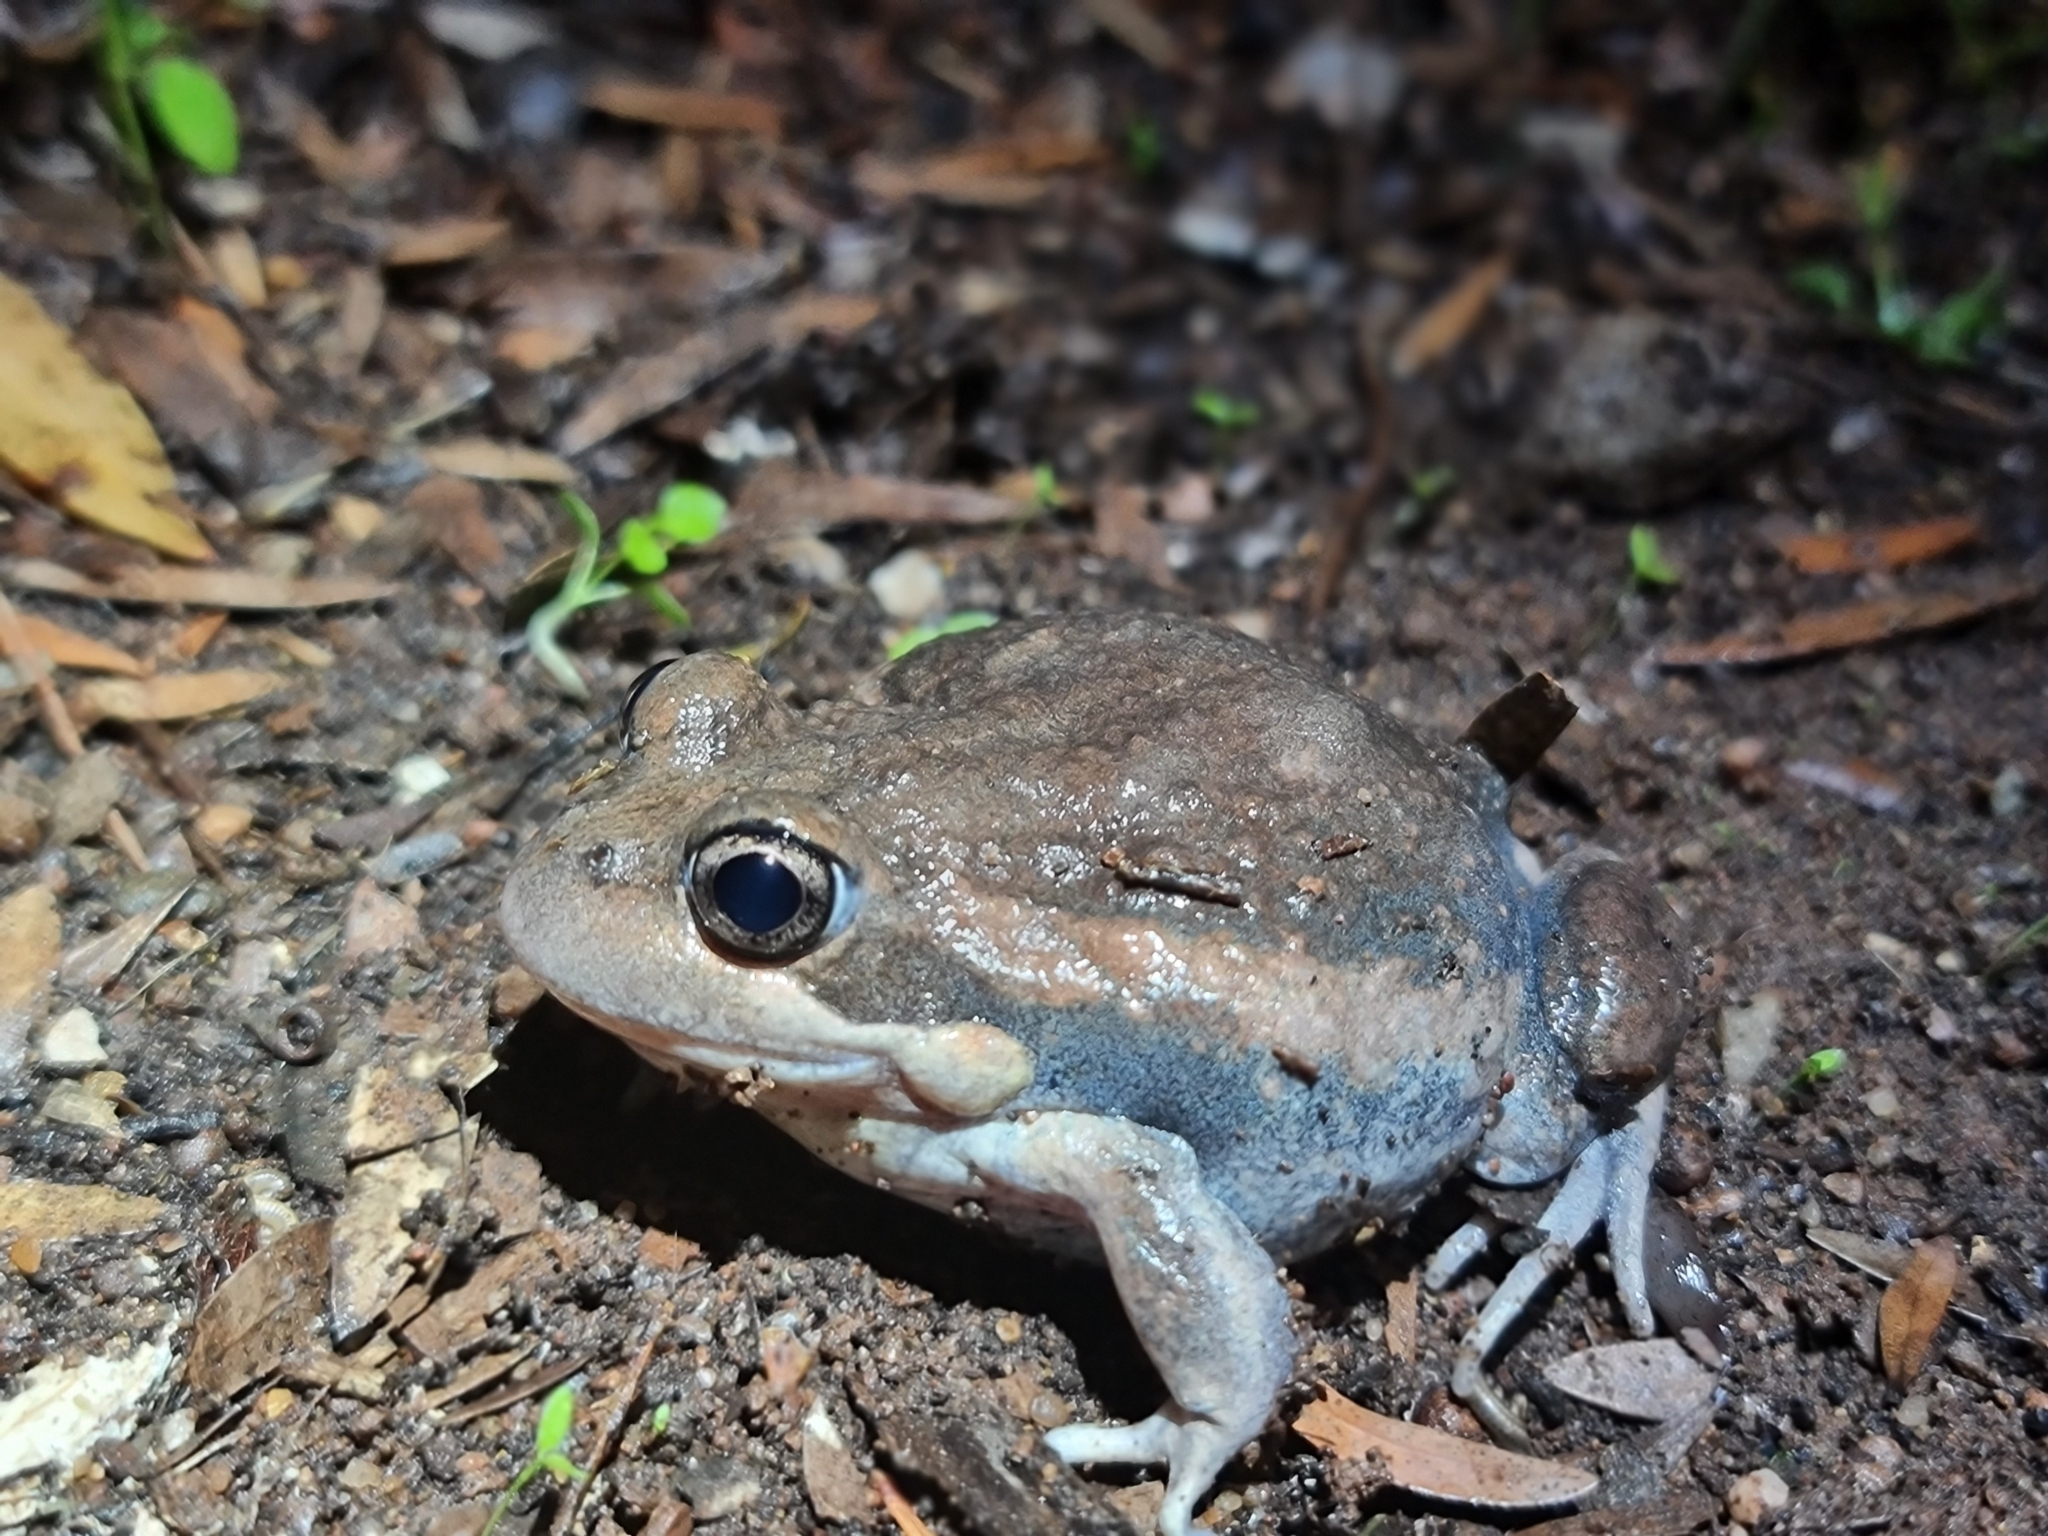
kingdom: Animalia
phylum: Chordata
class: Amphibia
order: Anura
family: Limnodynastidae
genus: Limnodynastes
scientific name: Limnodynastes dumerilii
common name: Banjo frog
